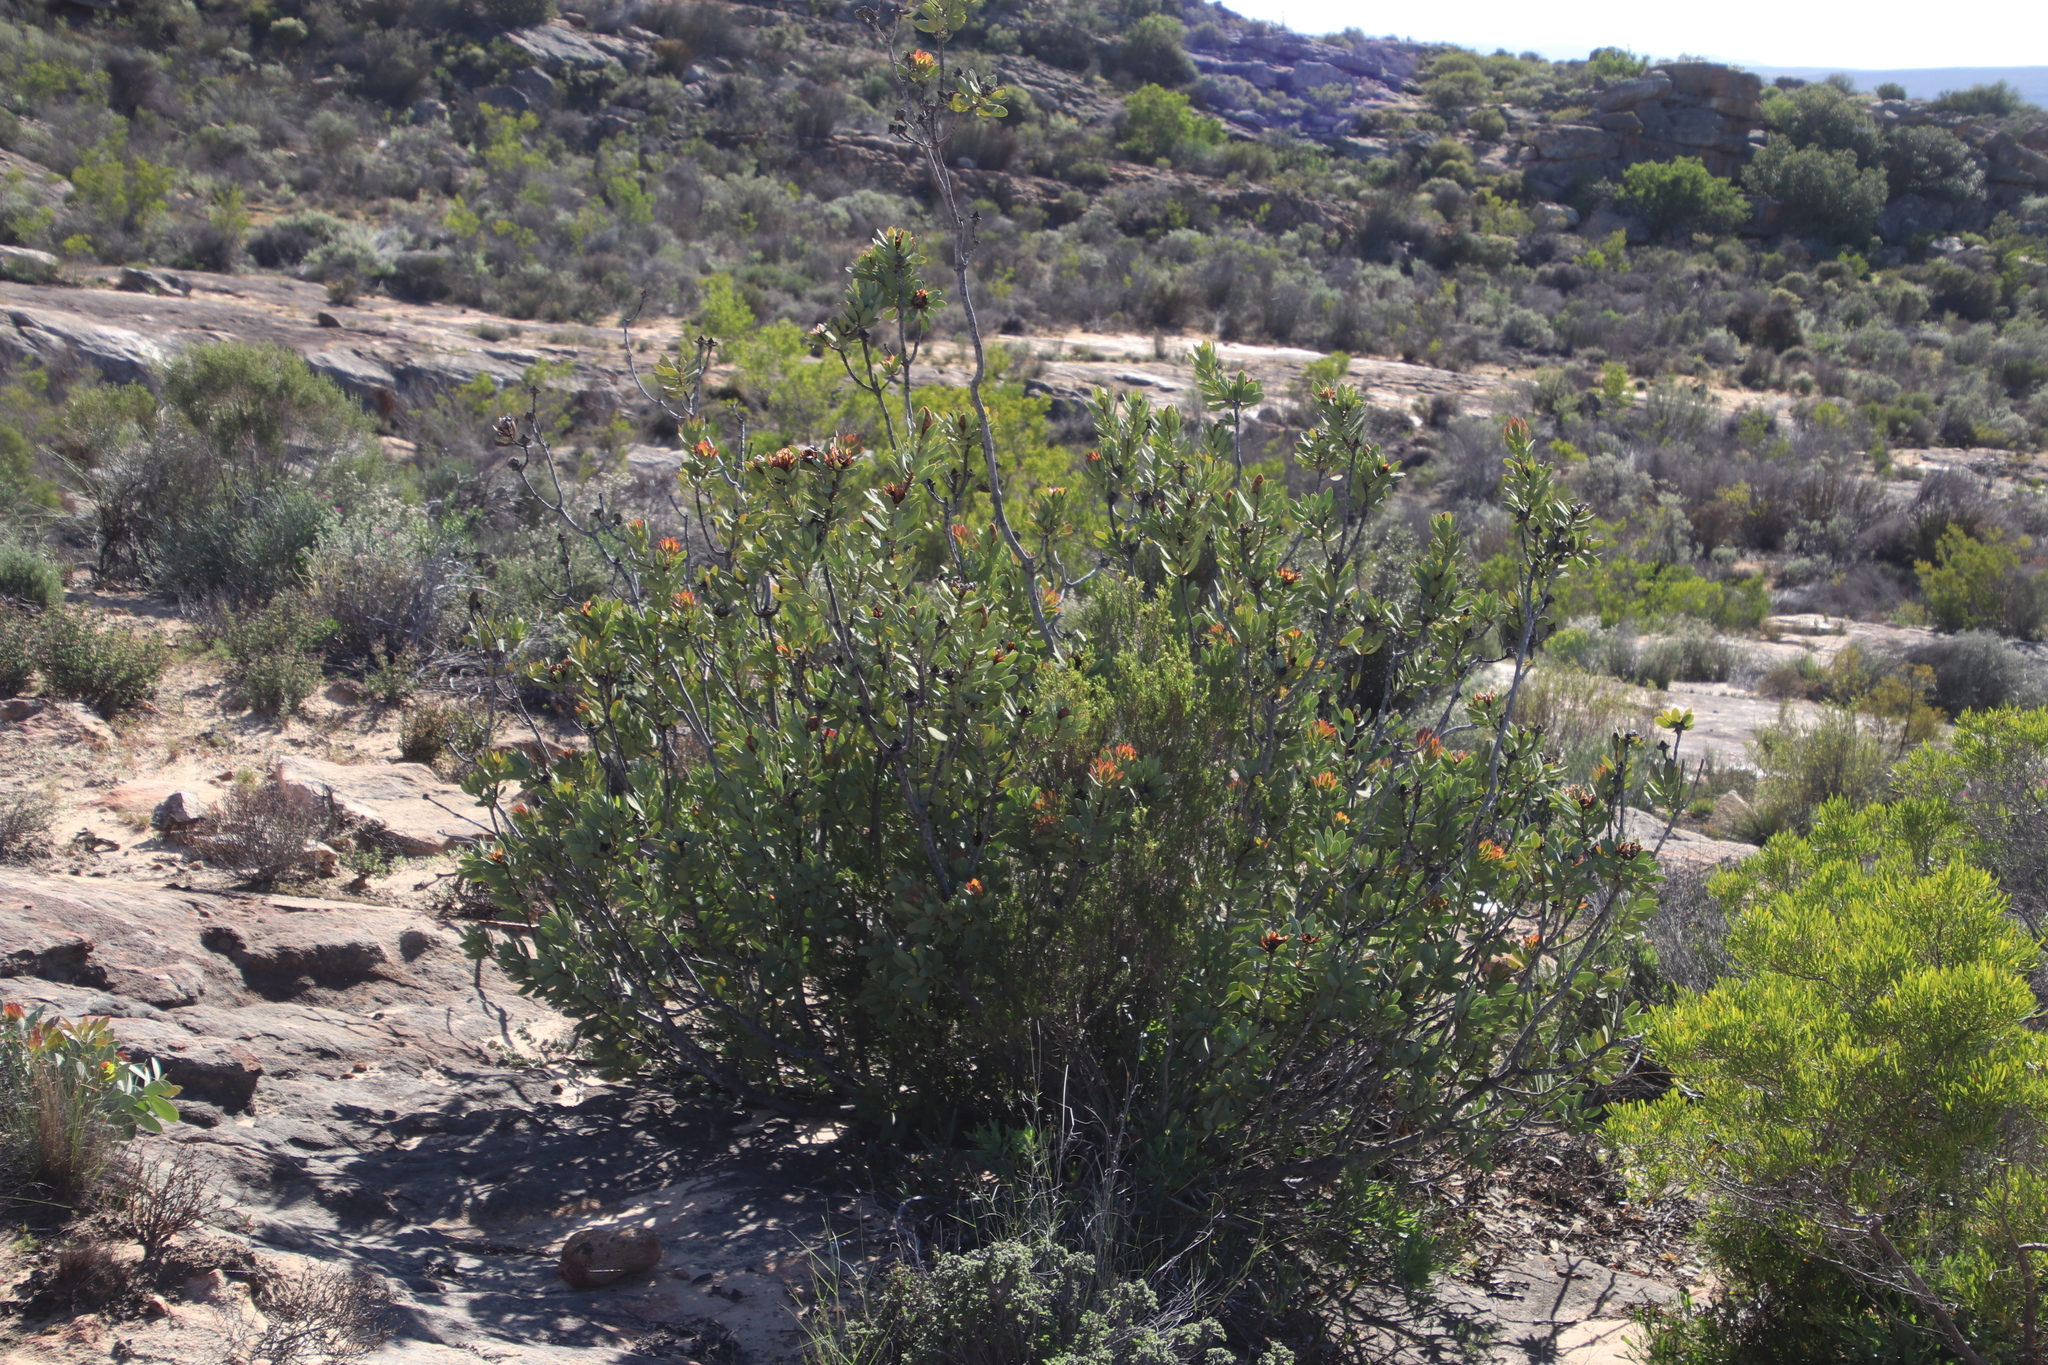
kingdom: Plantae
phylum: Tracheophyta
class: Magnoliopsida
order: Proteales
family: Proteaceae
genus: Protea
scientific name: Protea glabra
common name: Chestnut sugarbush
